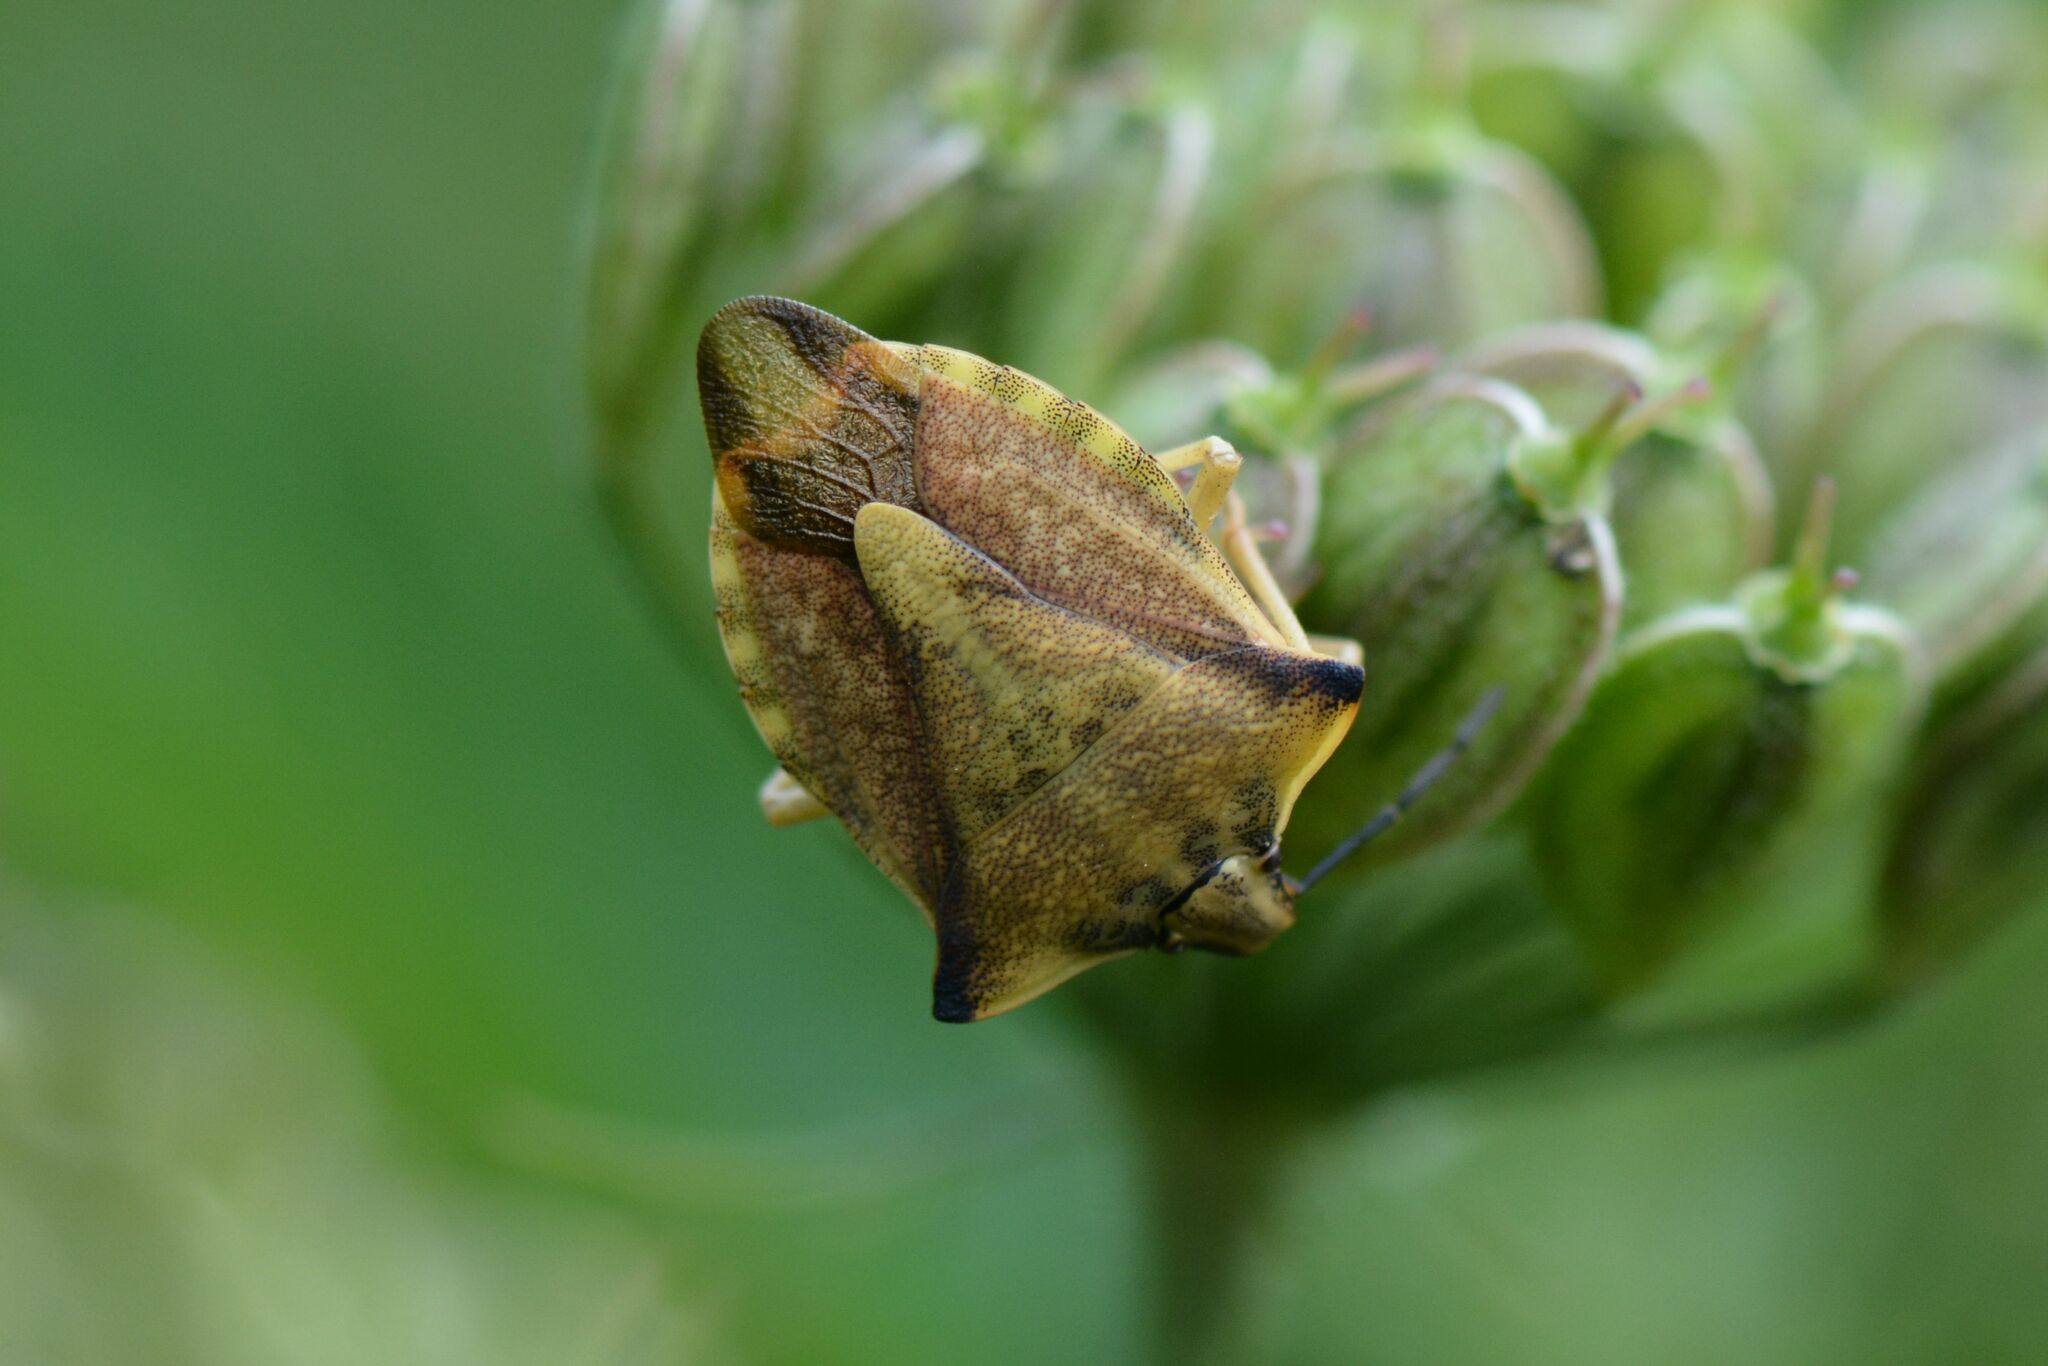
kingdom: Animalia
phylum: Arthropoda
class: Insecta
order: Hemiptera
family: Pentatomidae
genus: Carpocoris
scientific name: Carpocoris fuscispinus
